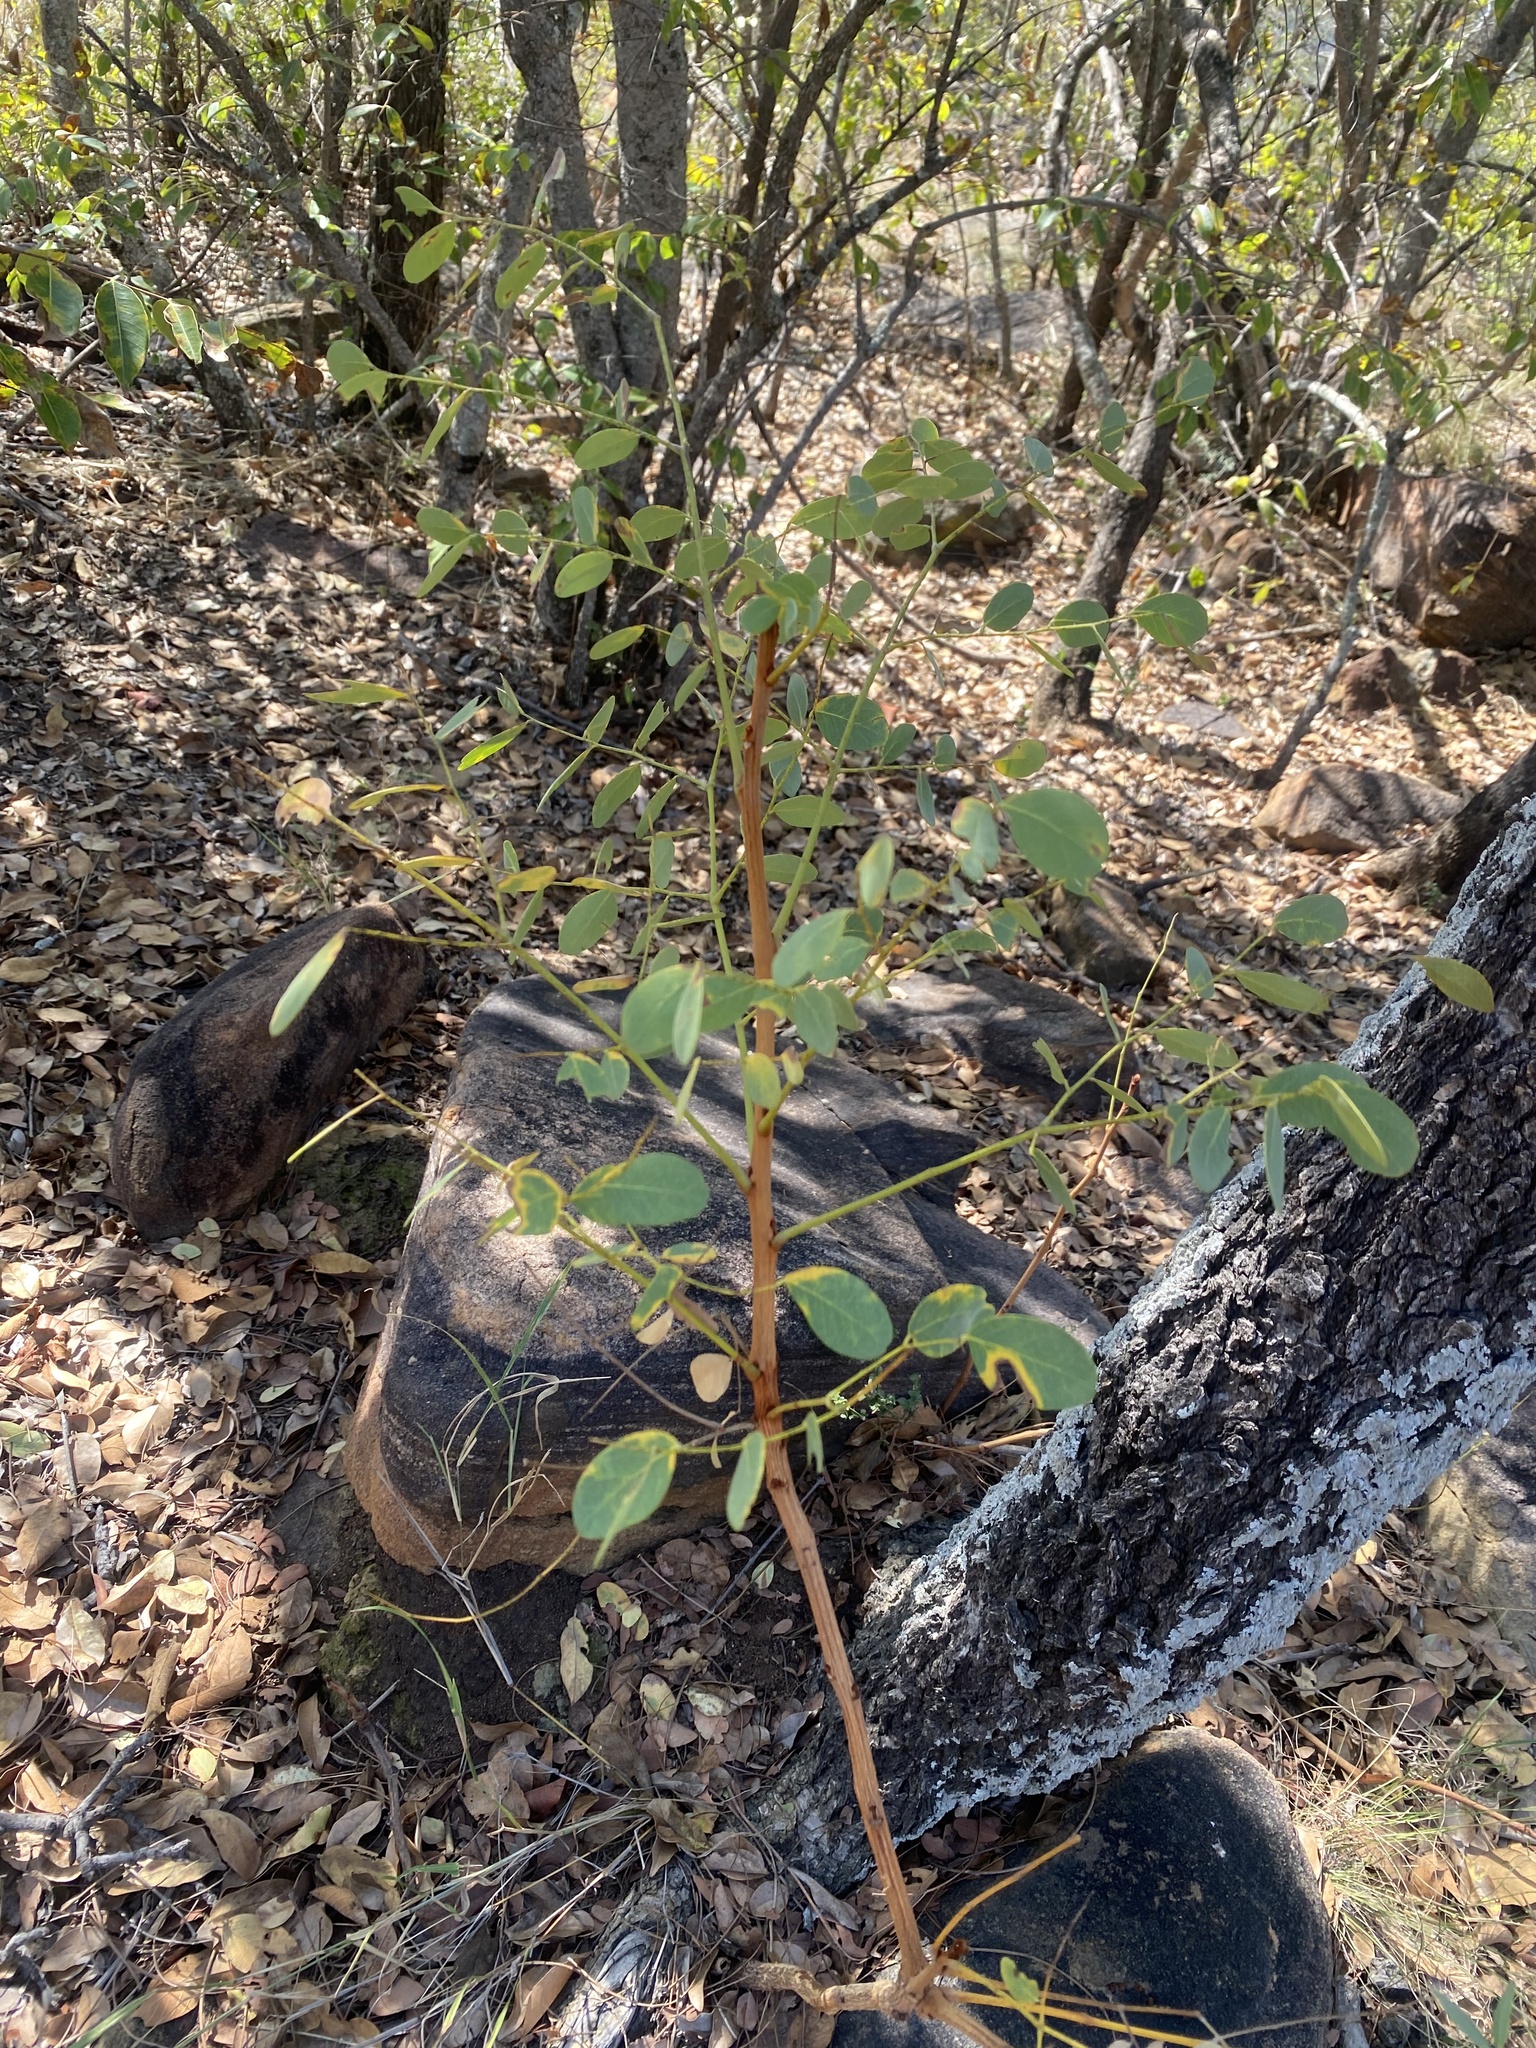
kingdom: Plantae
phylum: Tracheophyta
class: Magnoliopsida
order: Fabales
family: Fabaceae
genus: Burkea
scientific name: Burkea africana
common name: Mkalati tree
